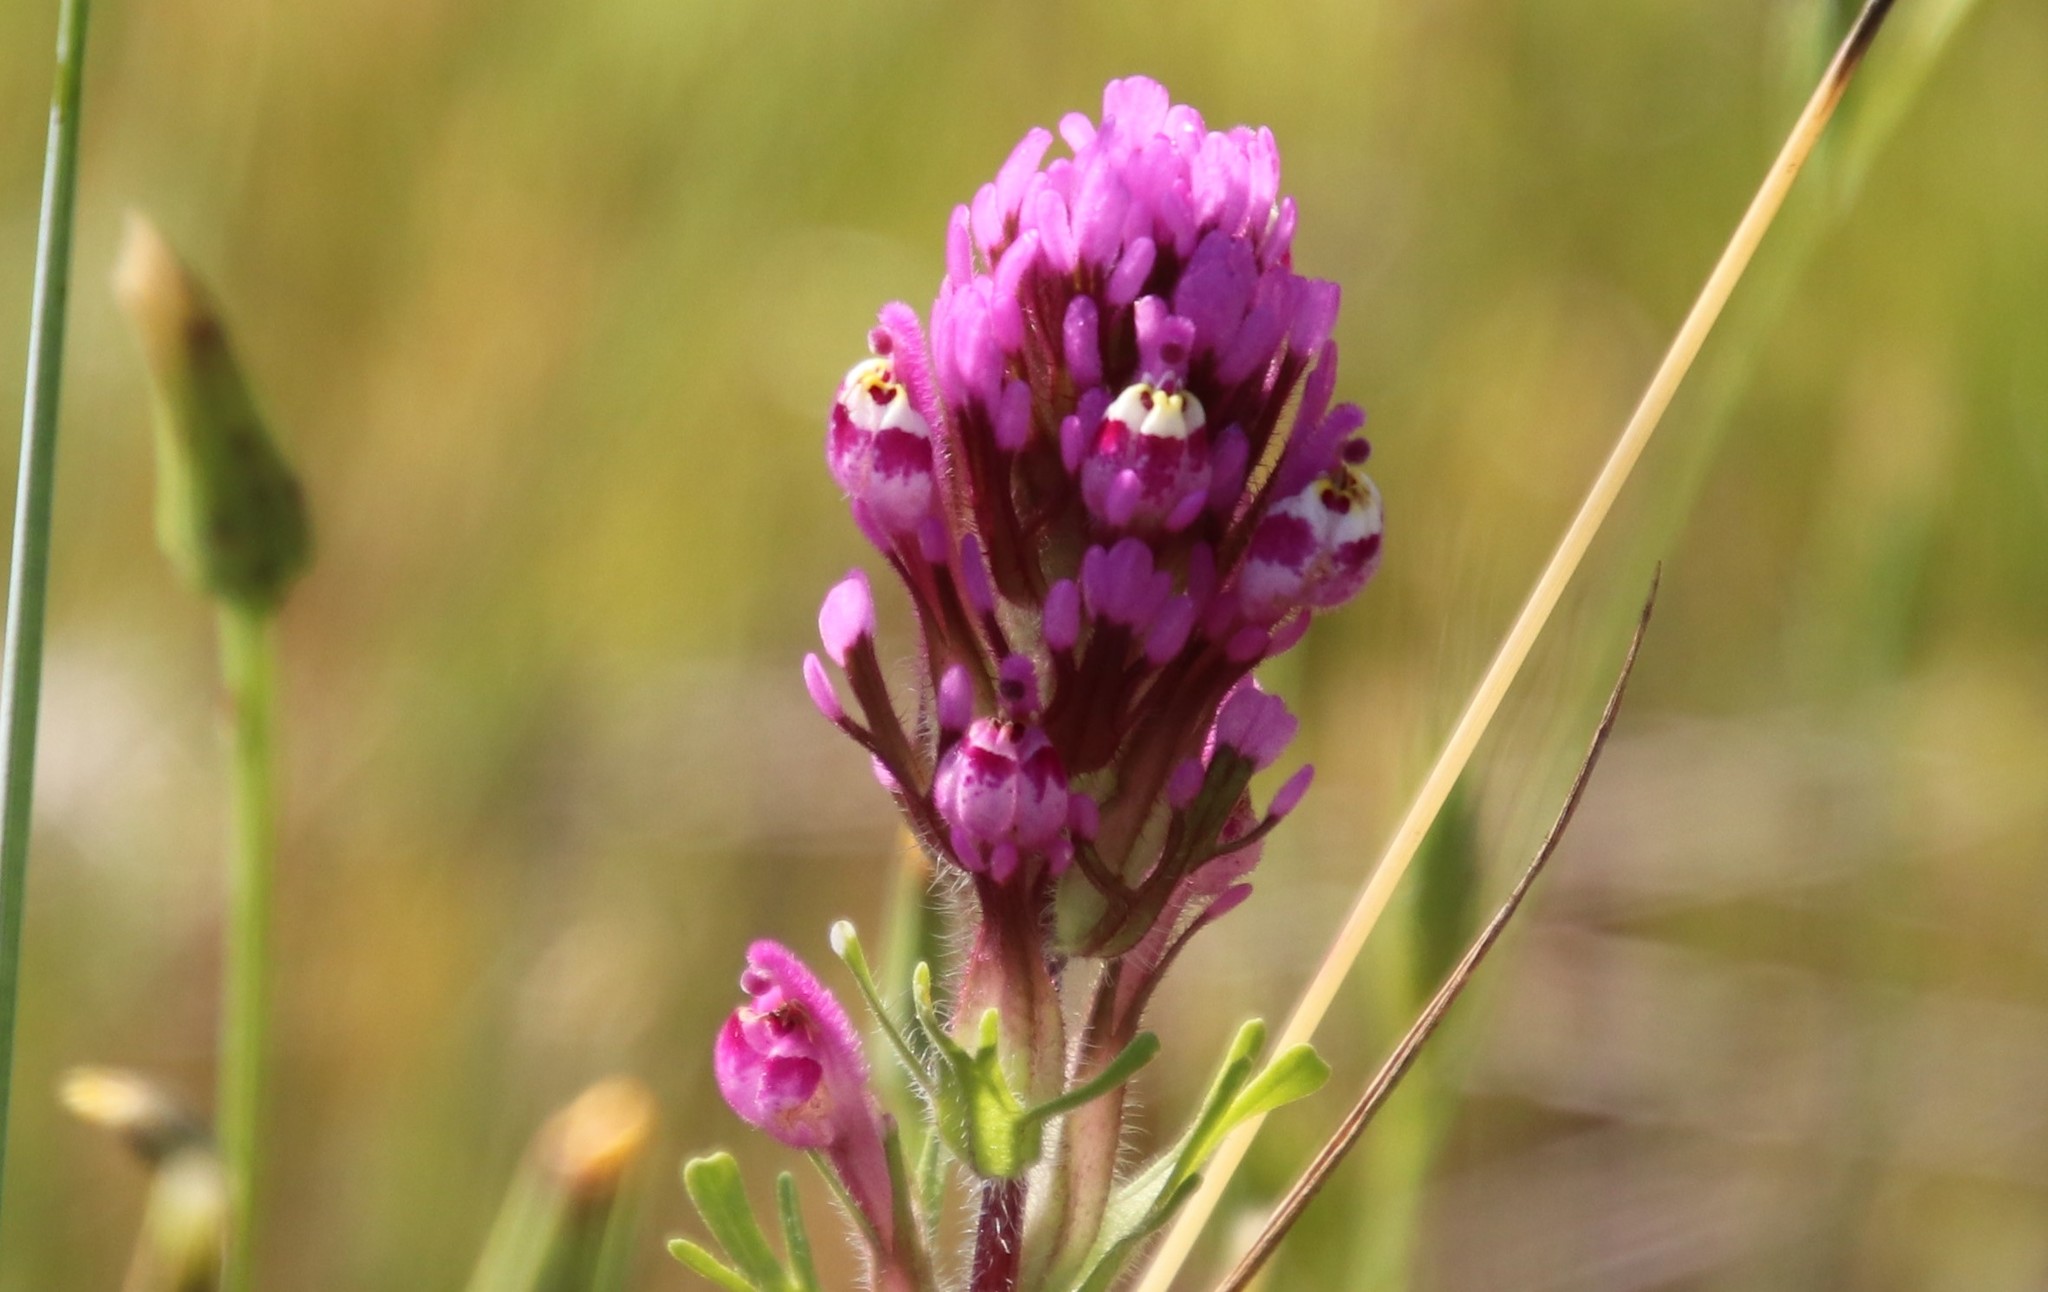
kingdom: Plantae
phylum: Tracheophyta
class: Magnoliopsida
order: Lamiales
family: Orobanchaceae
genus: Castilleja
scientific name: Castilleja exserta
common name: Purple owl-clover
